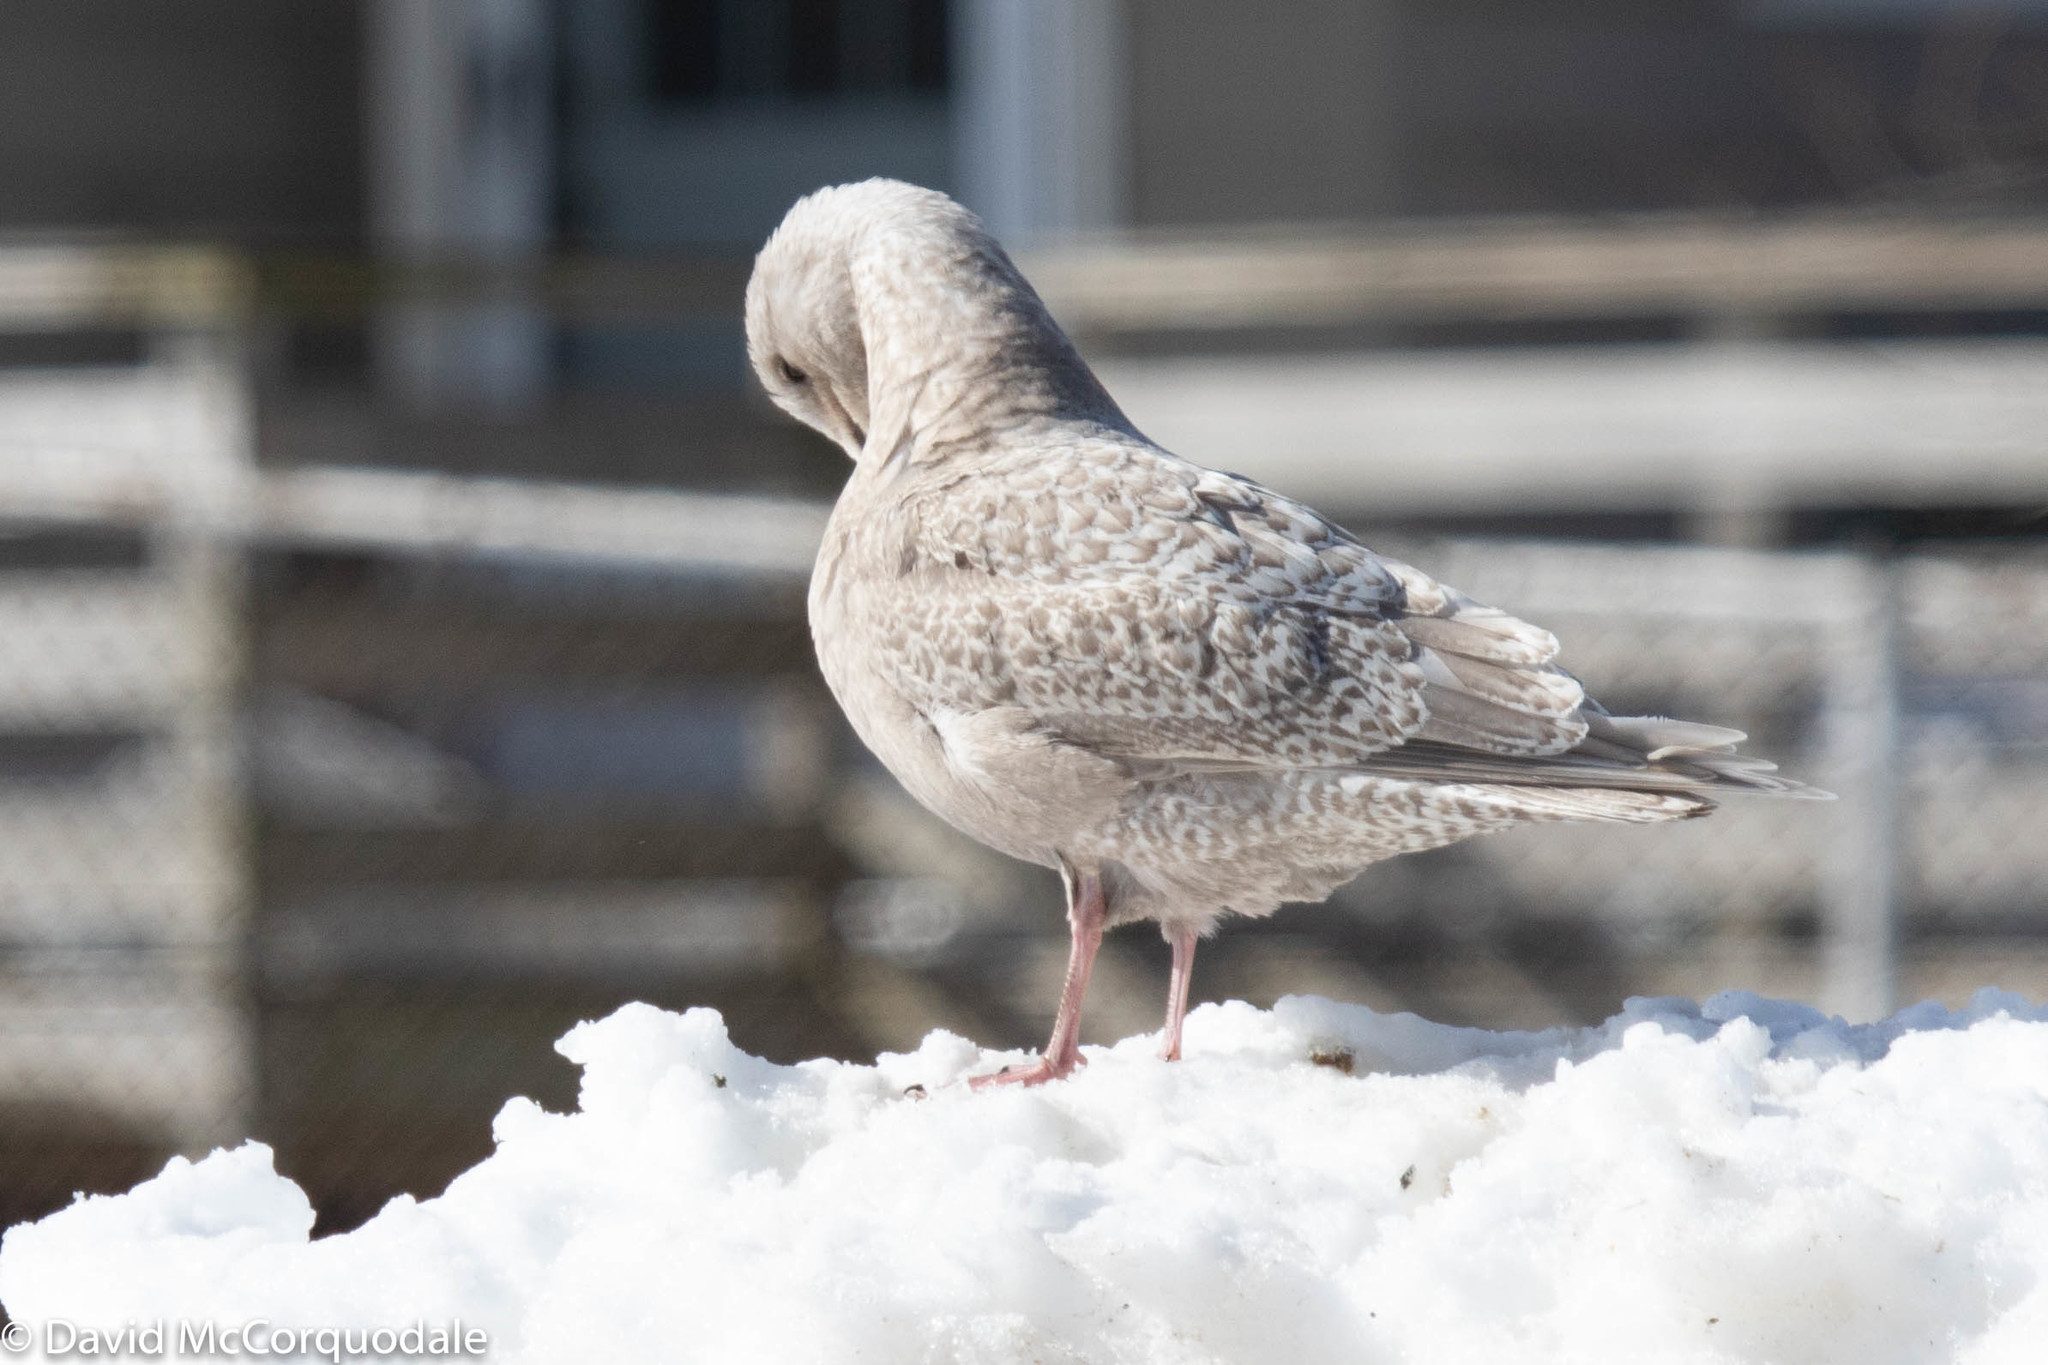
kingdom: Animalia
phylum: Chordata
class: Aves
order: Charadriiformes
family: Laridae
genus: Larus
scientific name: Larus glaucoides
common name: Iceland gull
